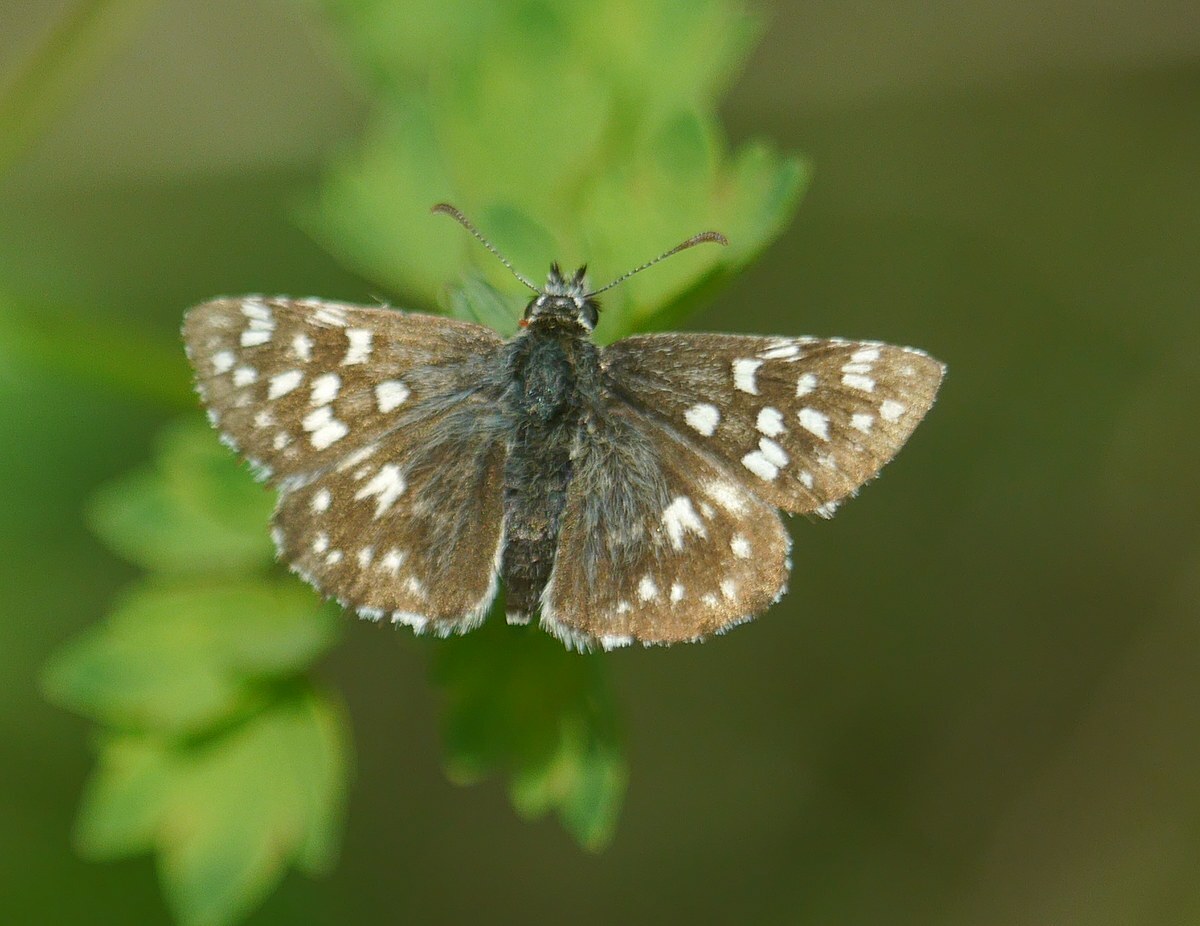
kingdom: Animalia
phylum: Arthropoda
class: Insecta
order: Lepidoptera
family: Hesperiidae
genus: Pyrgus
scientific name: Pyrgus malvae
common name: Grizzled skipper
